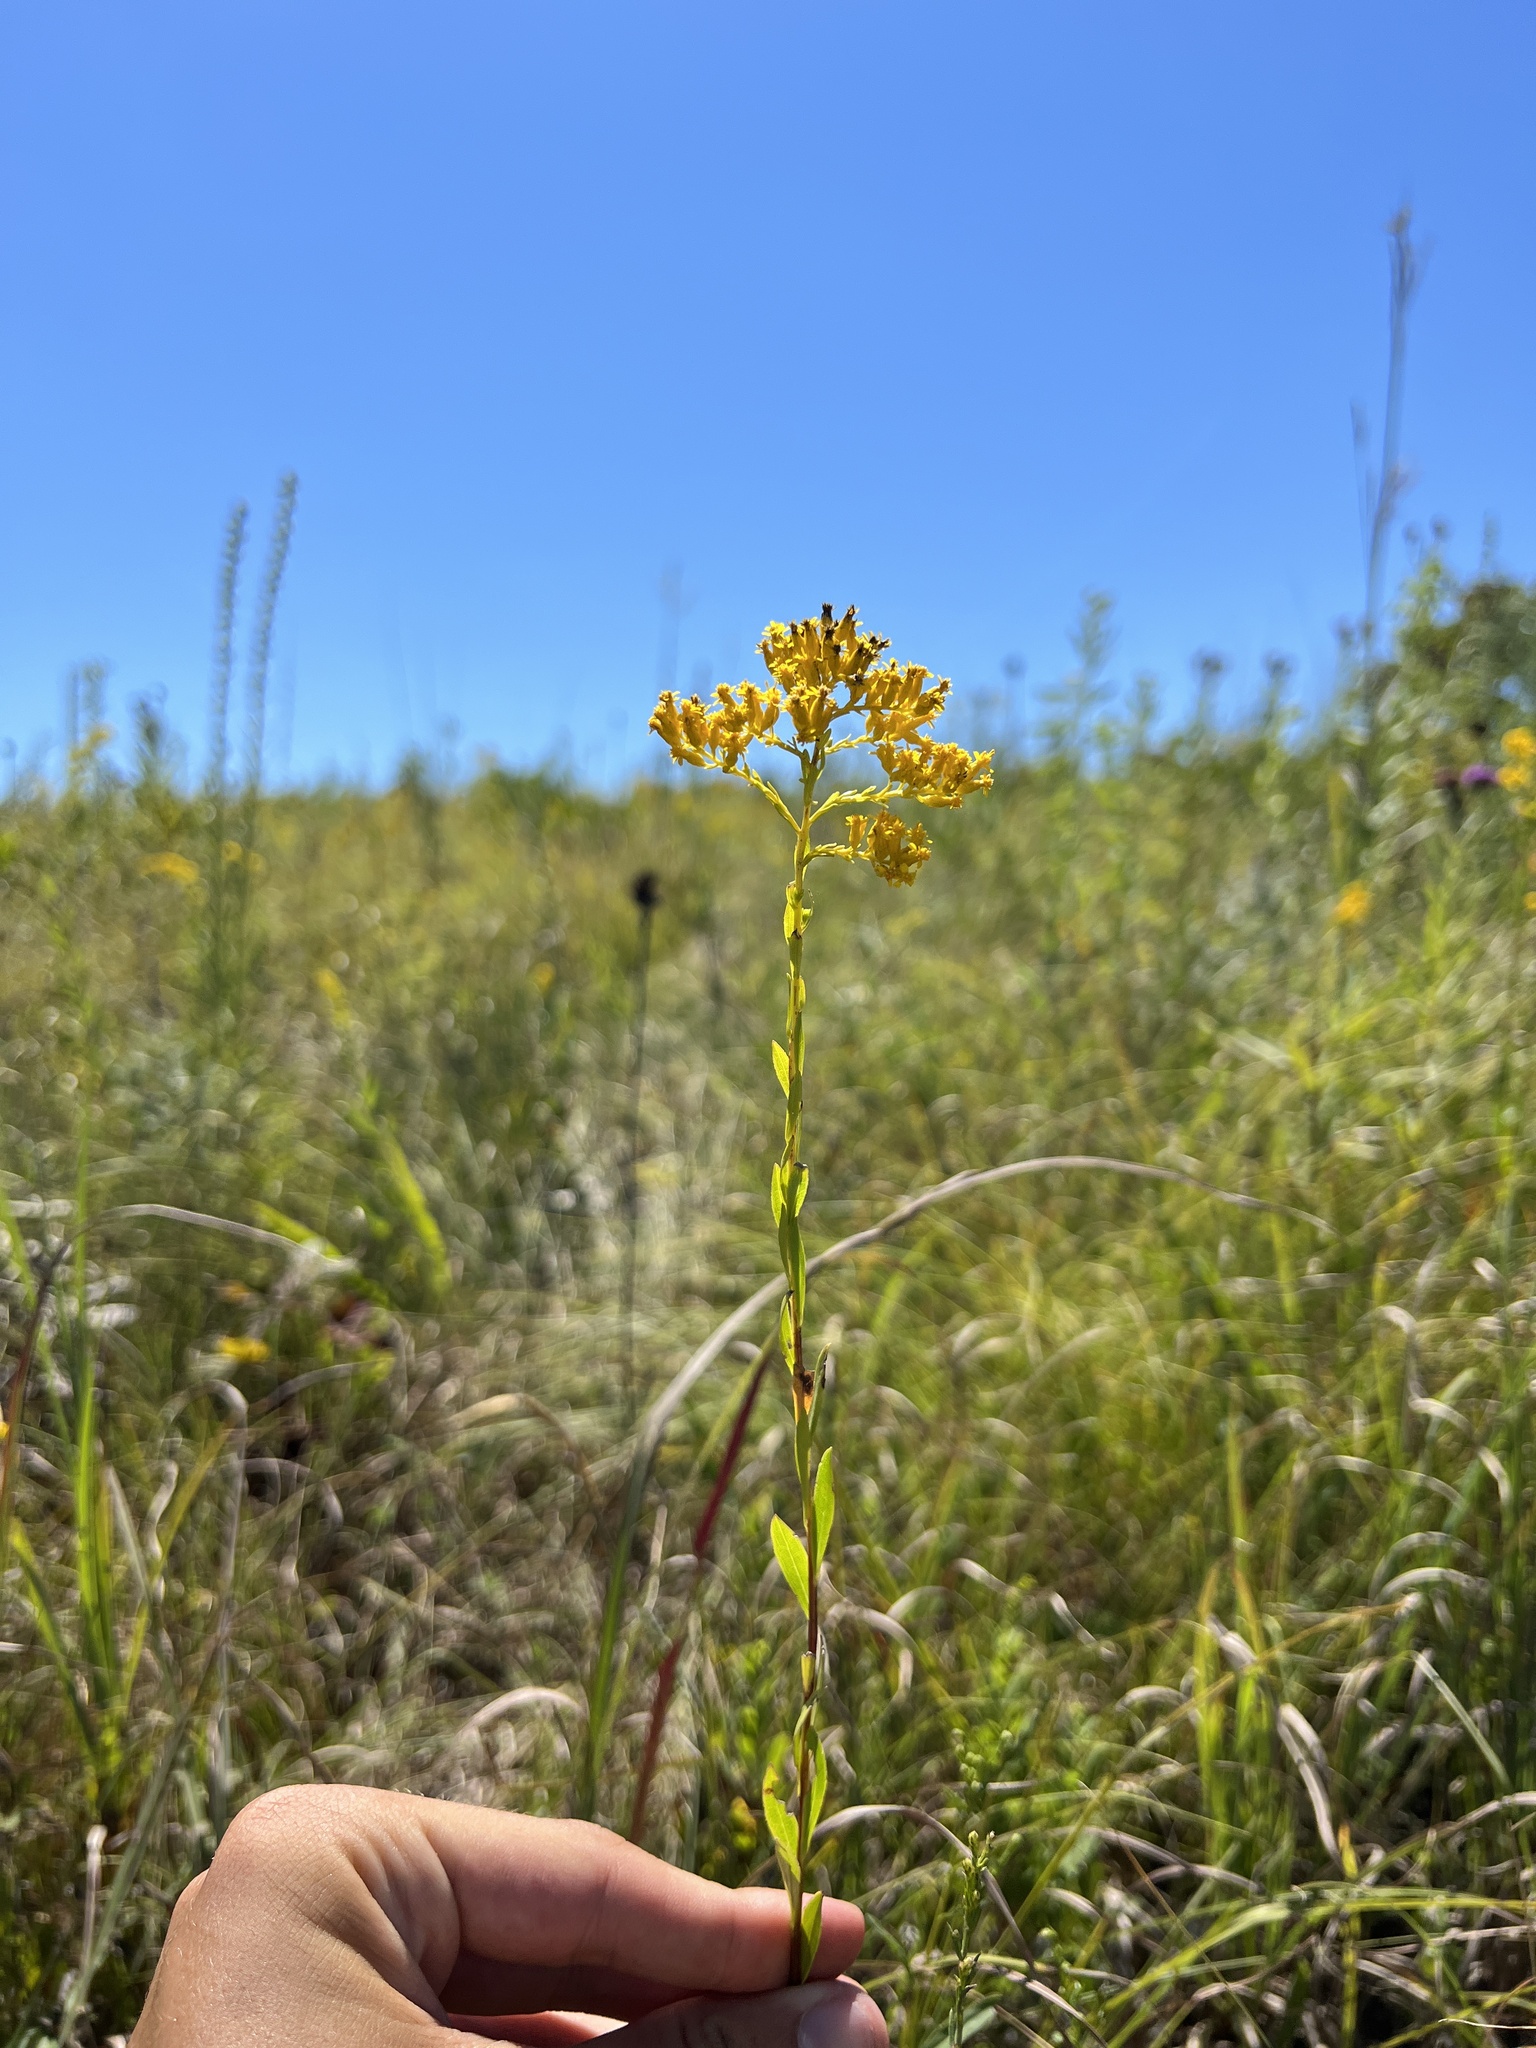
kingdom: Plantae
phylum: Tracheophyta
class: Magnoliopsida
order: Asterales
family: Asteraceae
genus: Solidago
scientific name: Solidago gattingeri
